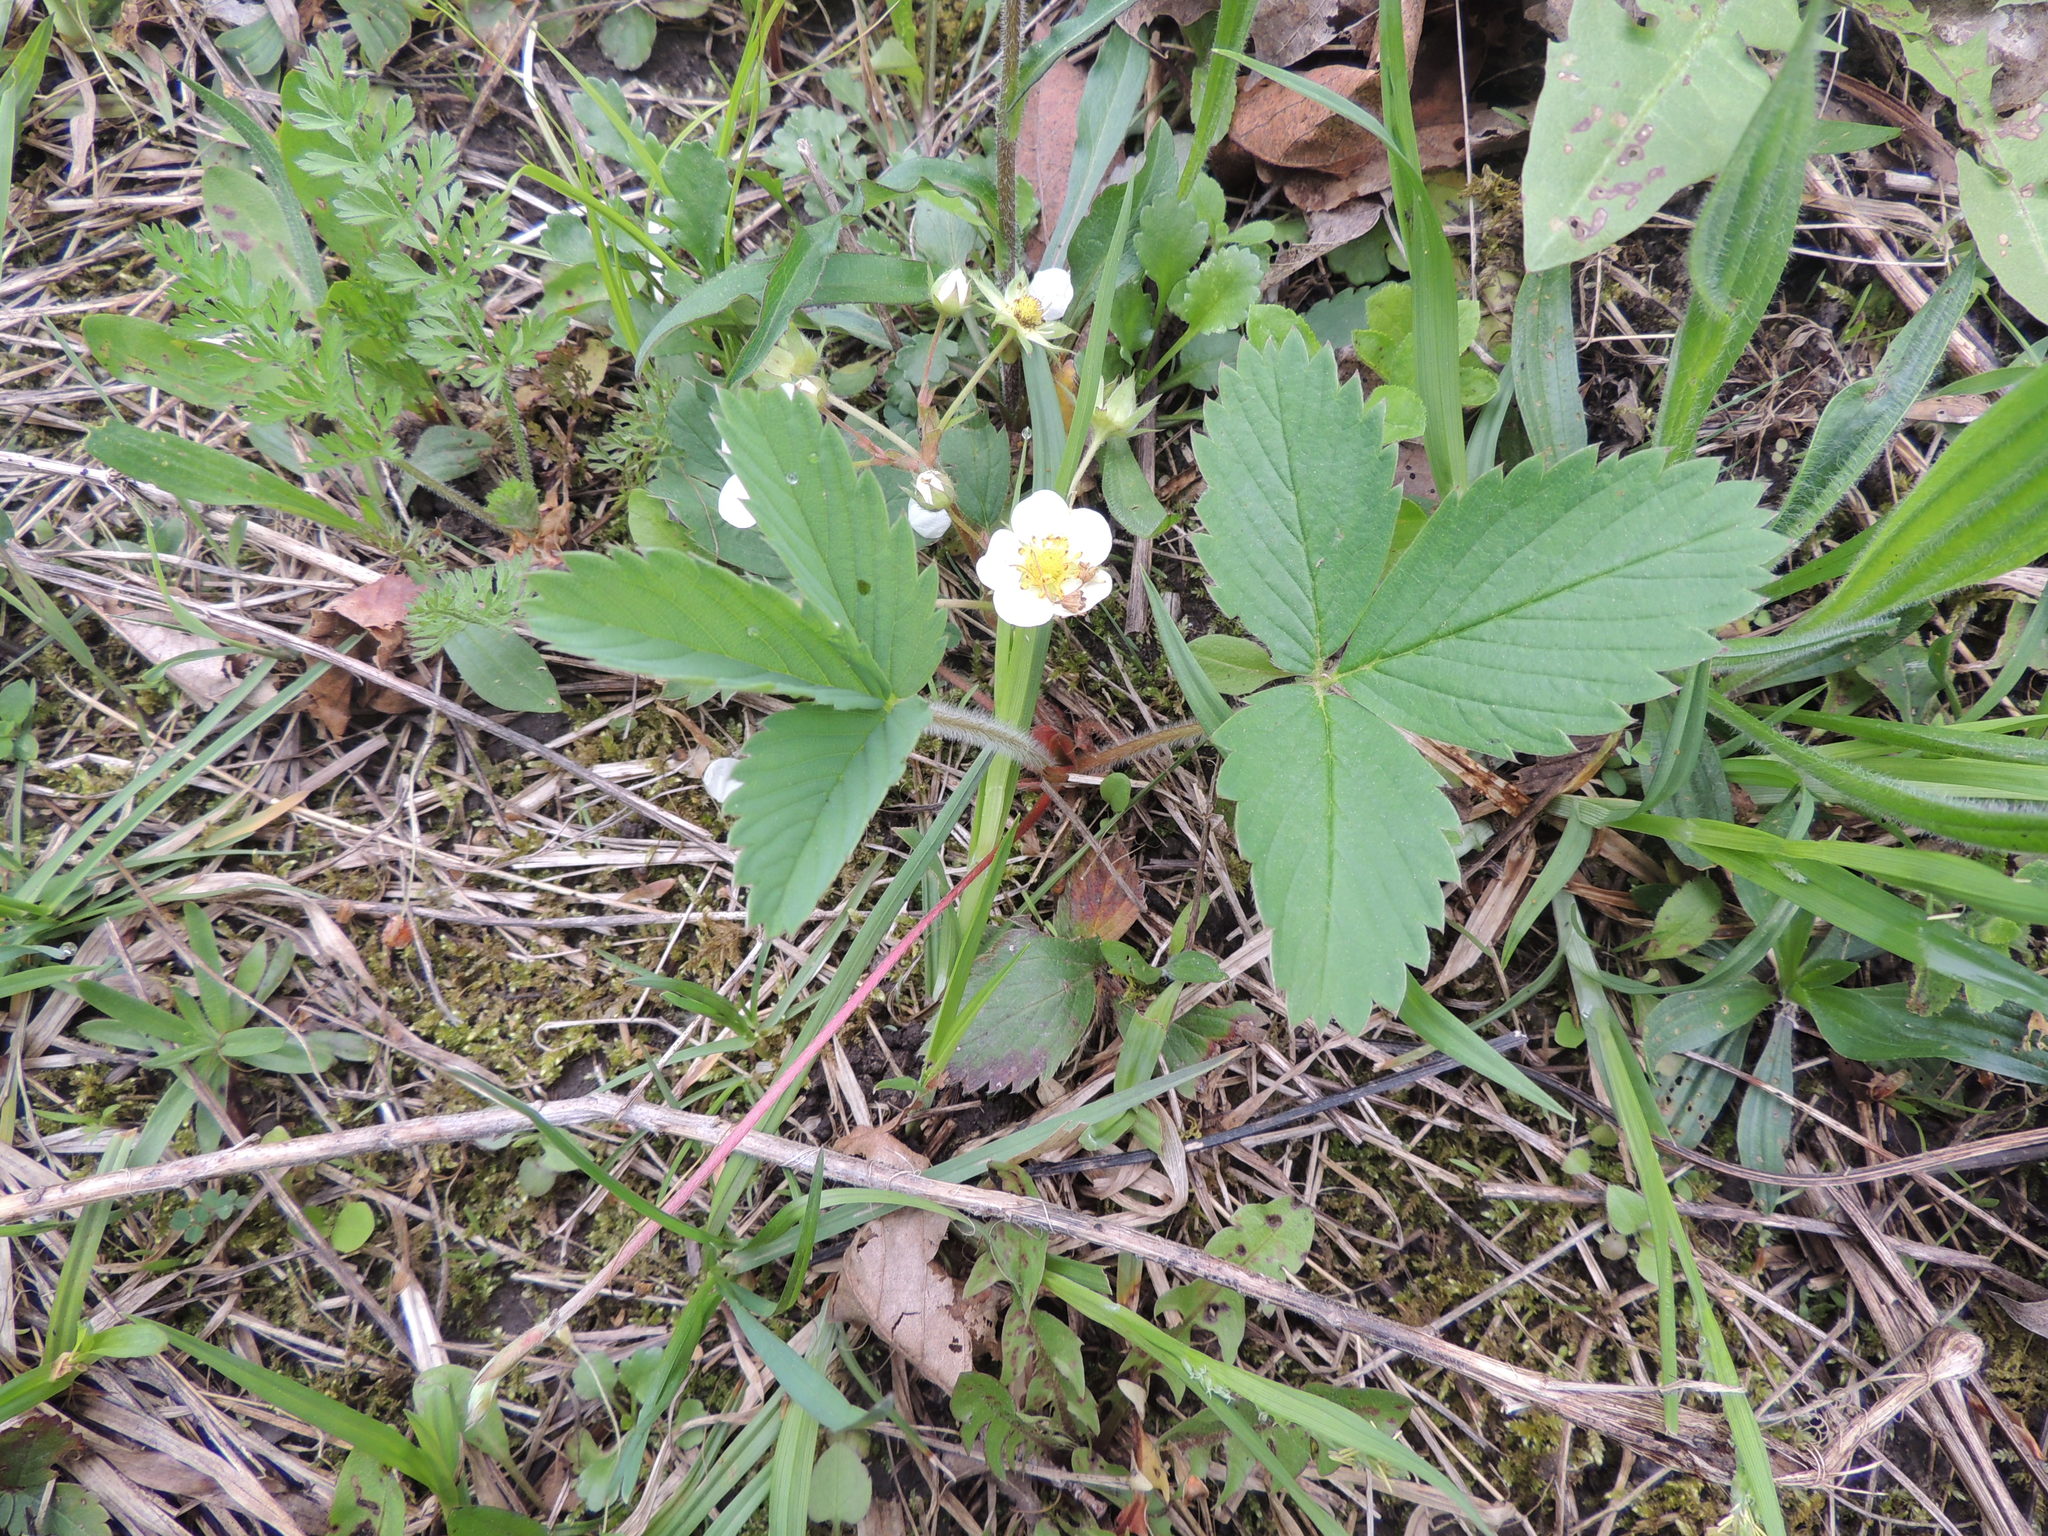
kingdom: Plantae
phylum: Tracheophyta
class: Magnoliopsida
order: Rosales
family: Rosaceae
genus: Fragaria
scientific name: Fragaria virginiana
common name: Thickleaved wild strawberry
